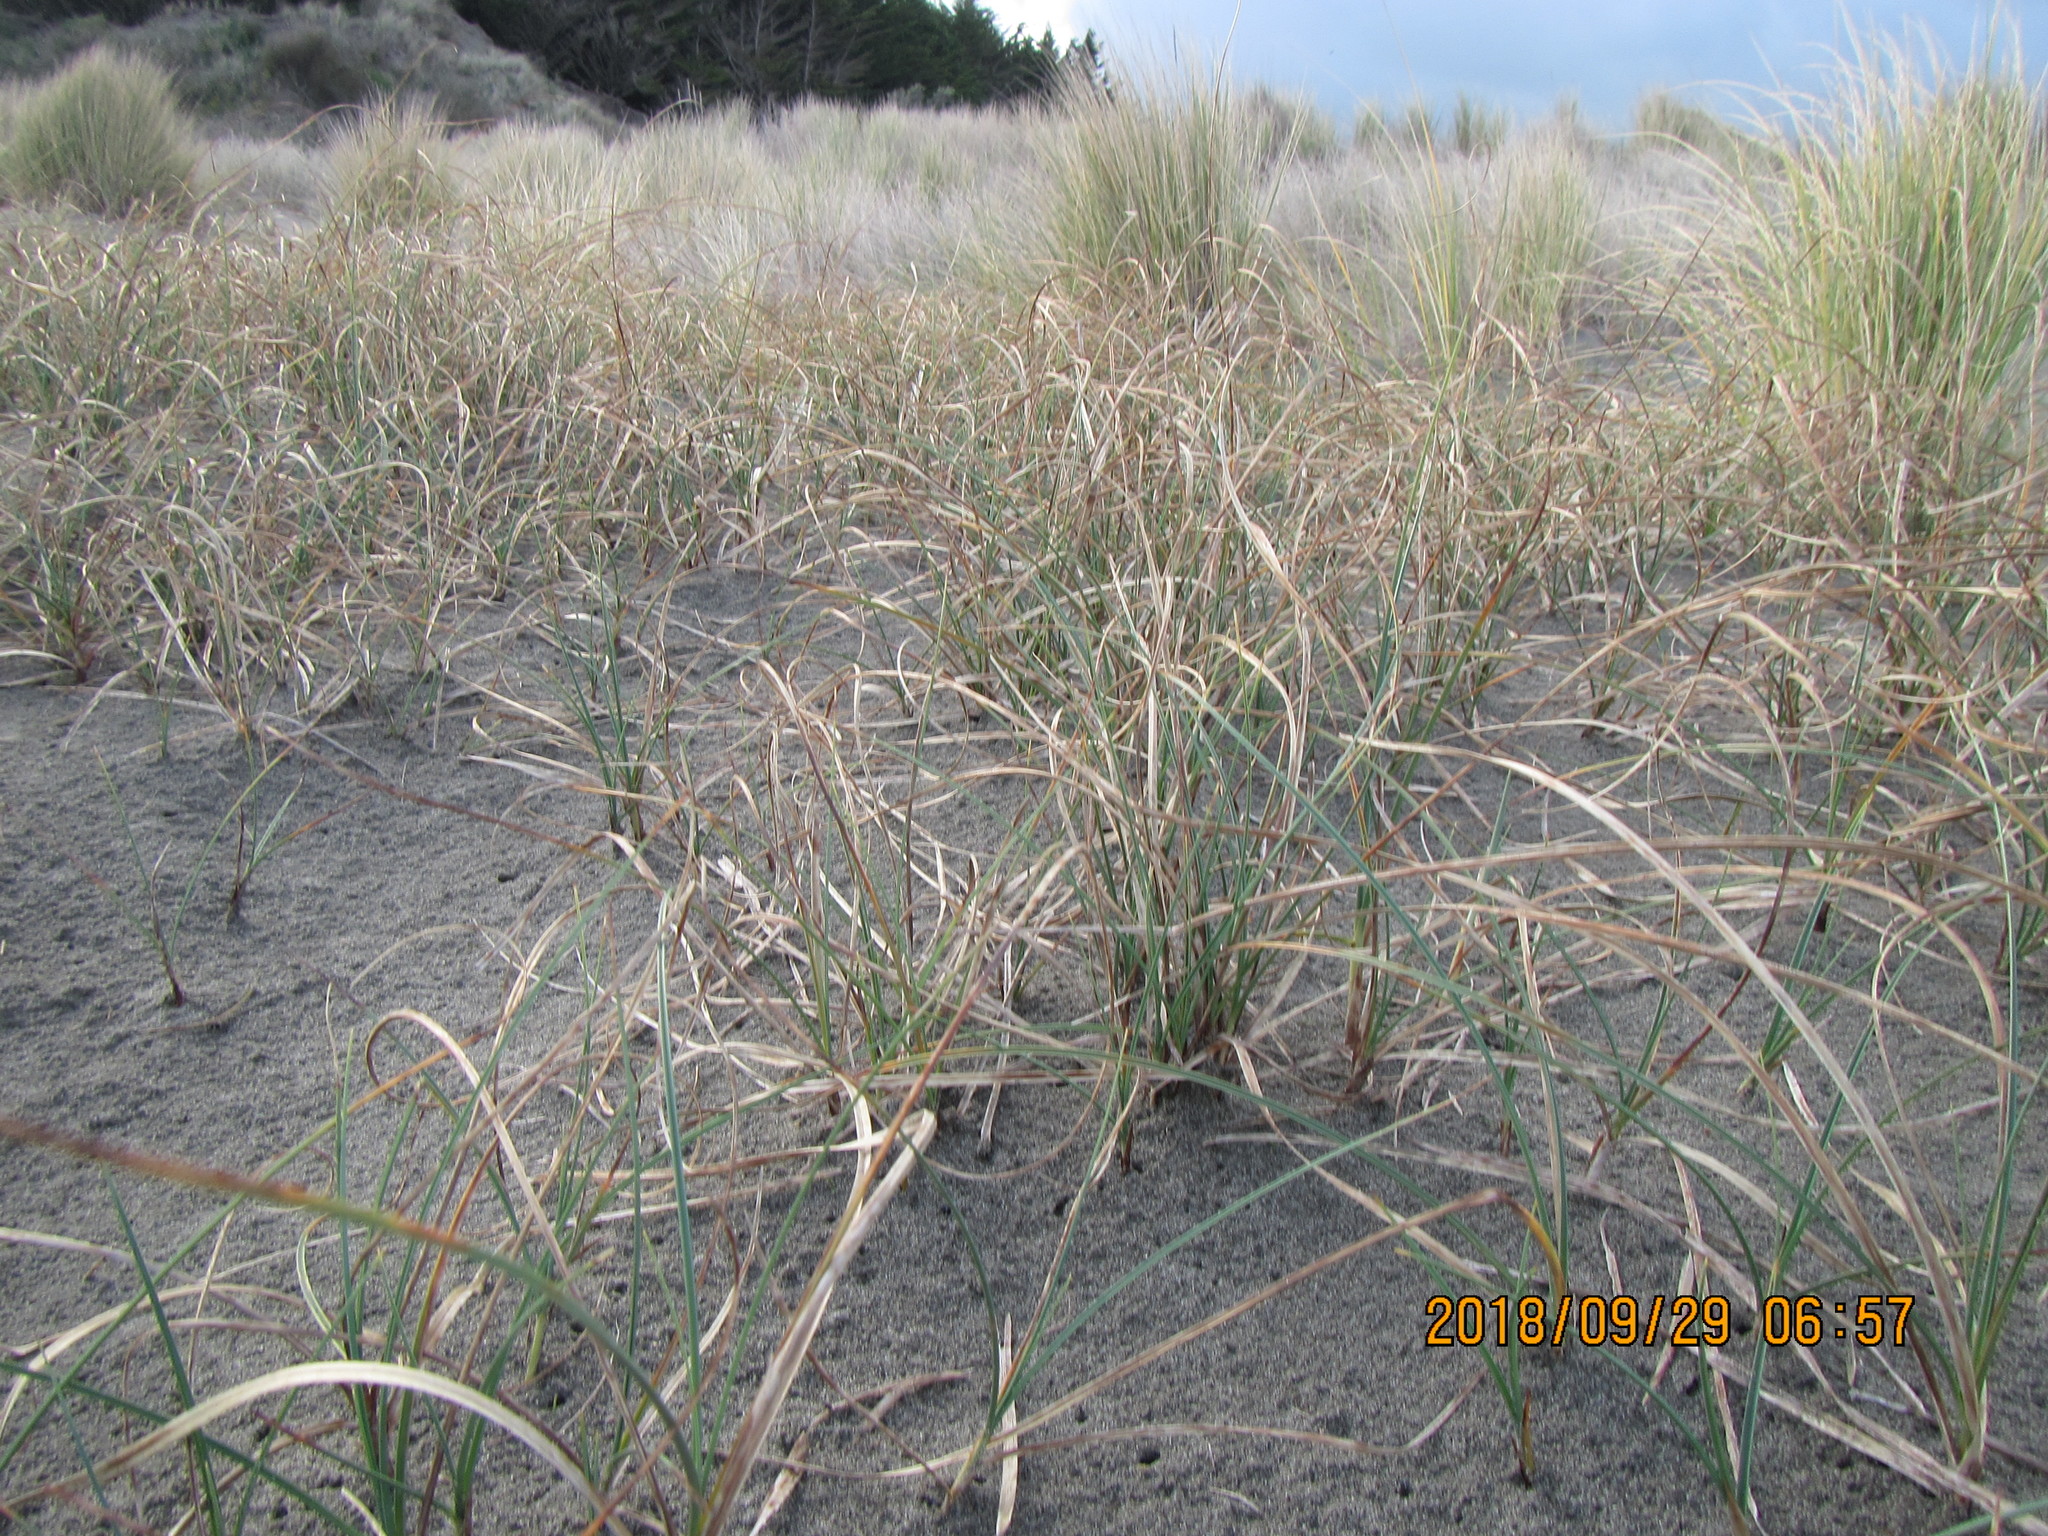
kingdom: Plantae
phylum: Tracheophyta
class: Liliopsida
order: Poales
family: Cyperaceae
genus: Carex
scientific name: Carex pumila
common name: Dwarf sedge
